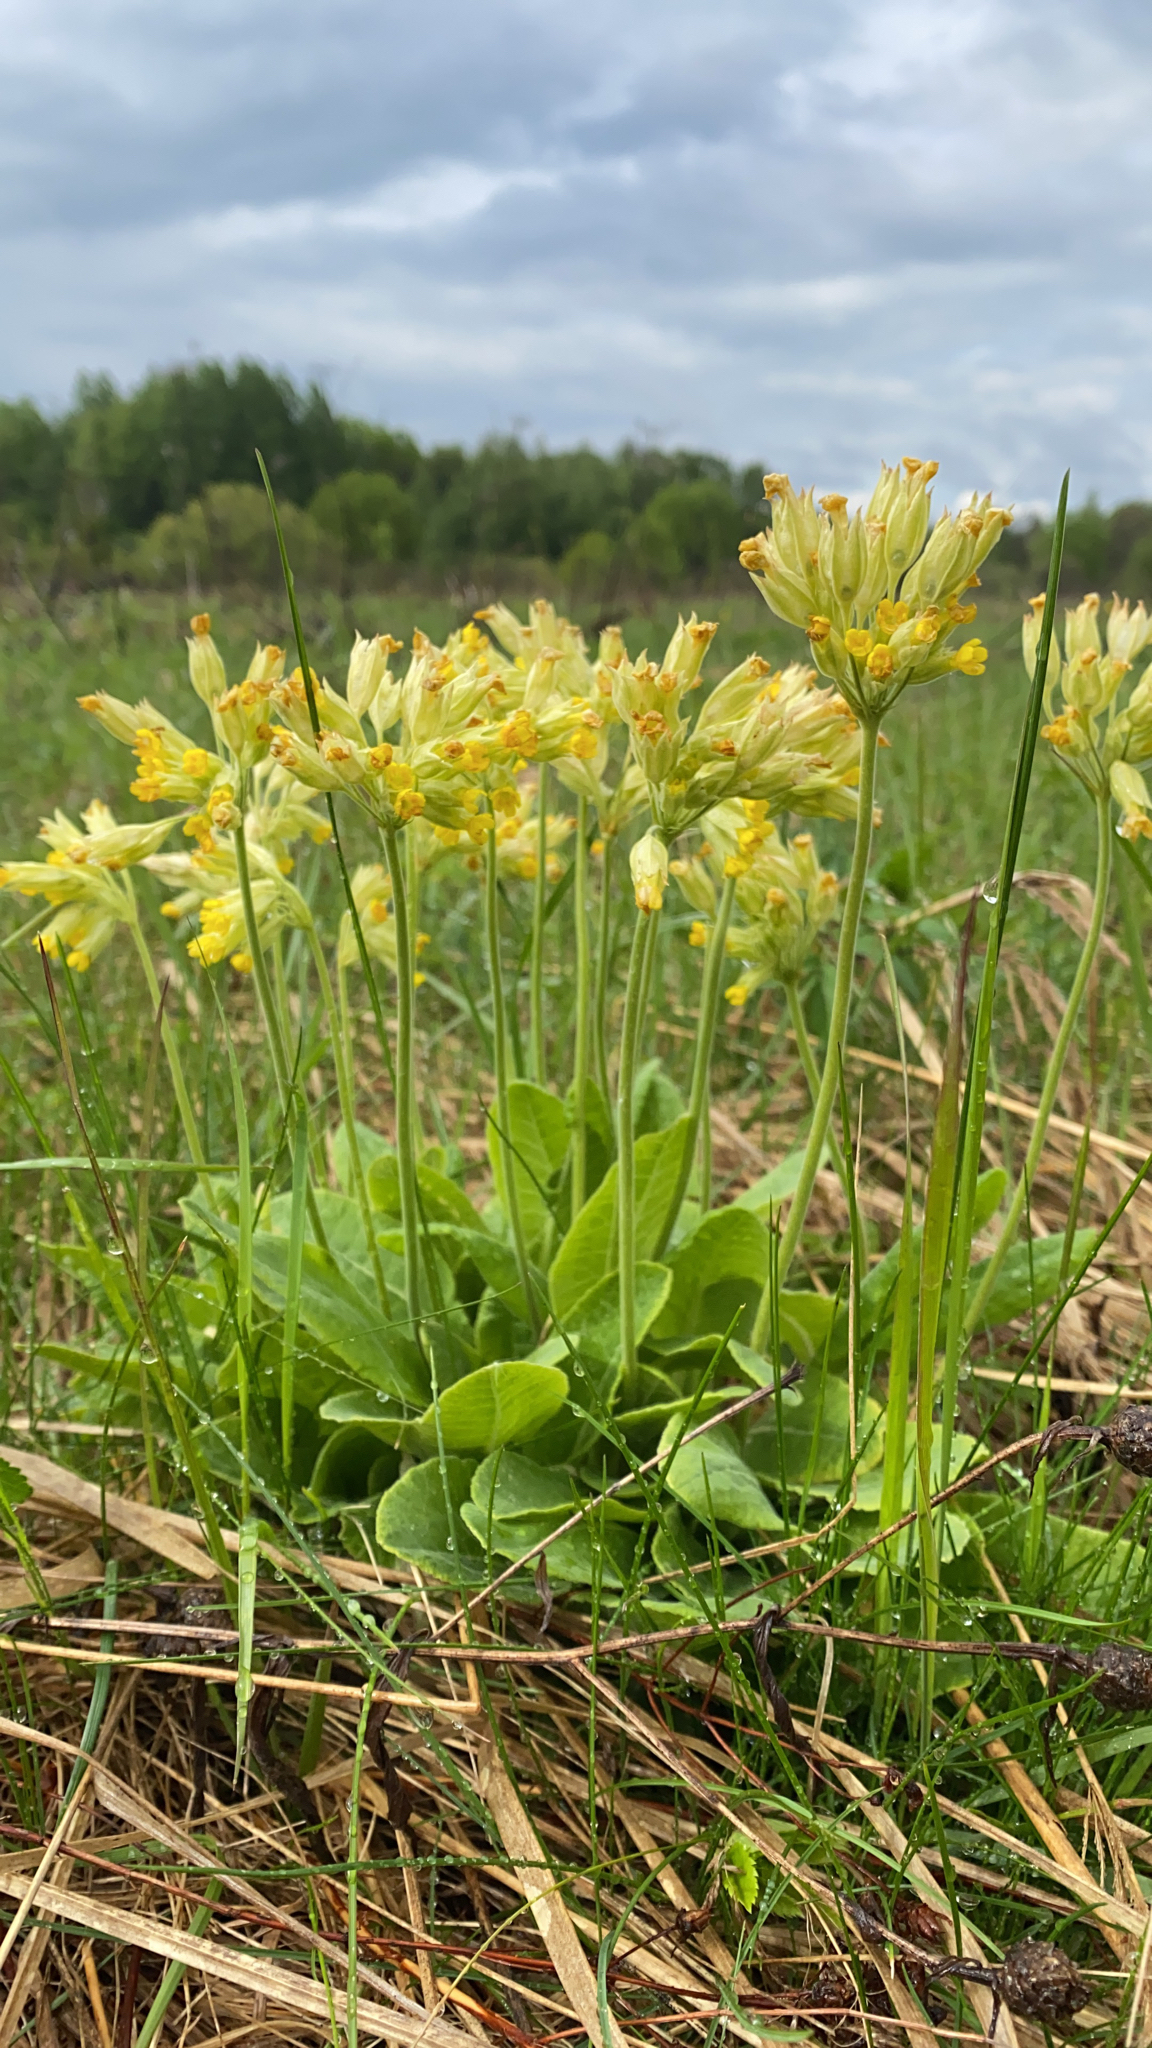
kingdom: Plantae
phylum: Tracheophyta
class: Magnoliopsida
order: Ericales
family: Primulaceae
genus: Primula
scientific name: Primula veris
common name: Cowslip
